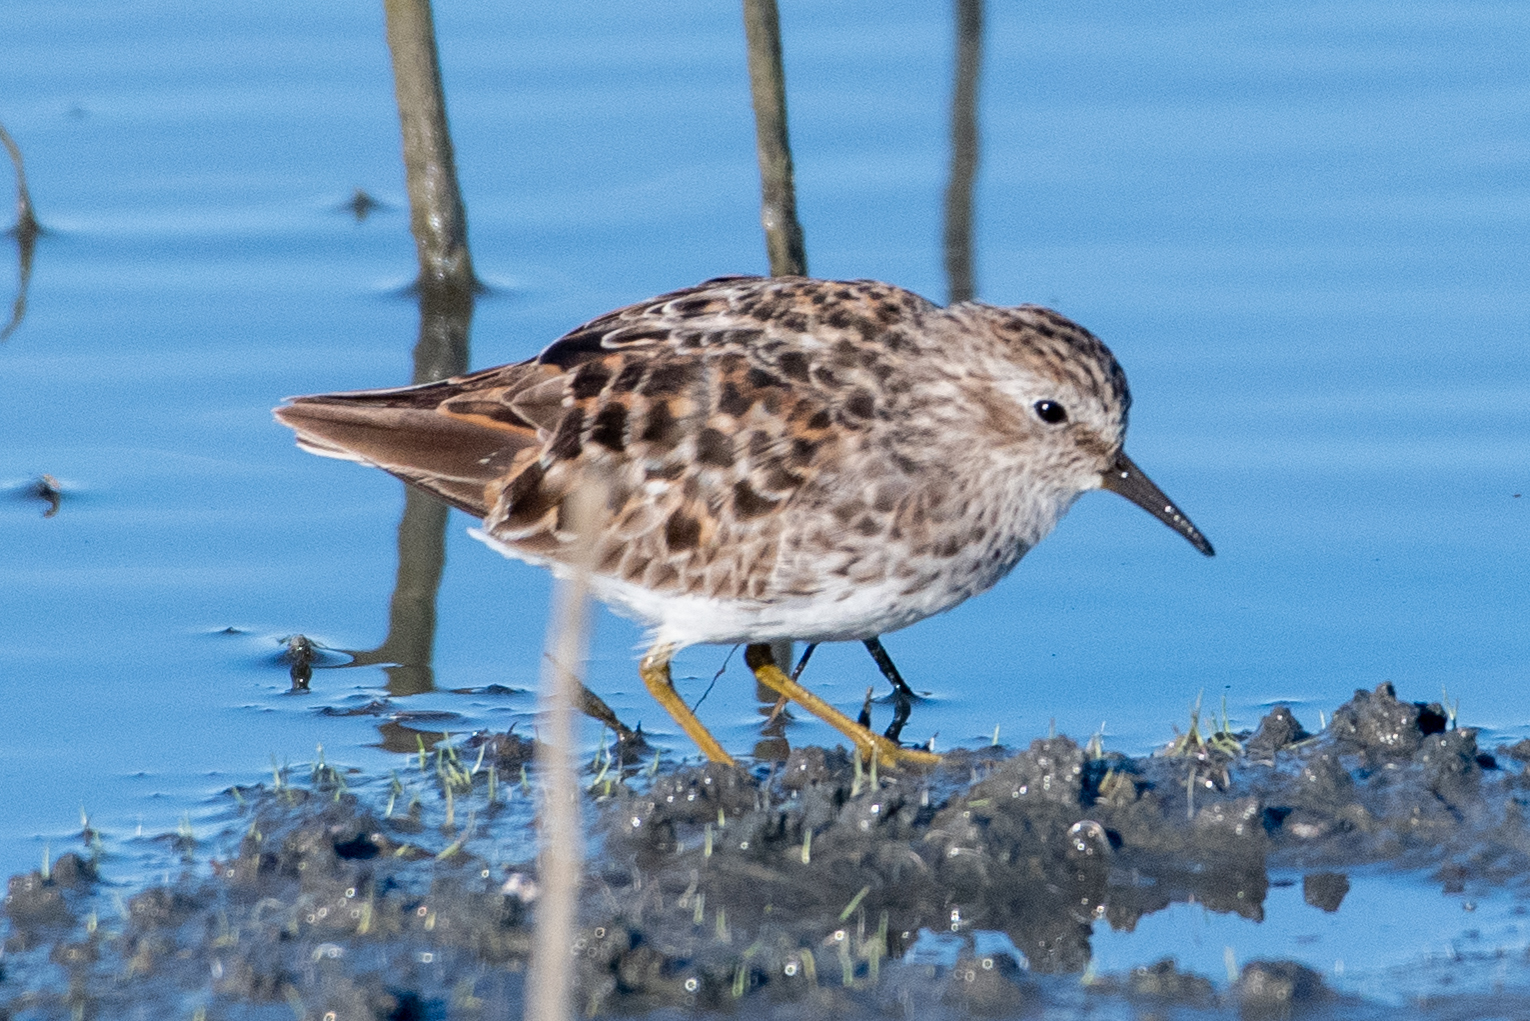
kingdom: Animalia
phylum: Chordata
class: Aves
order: Charadriiformes
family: Scolopacidae
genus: Calidris
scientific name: Calidris minutilla
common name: Least sandpiper
